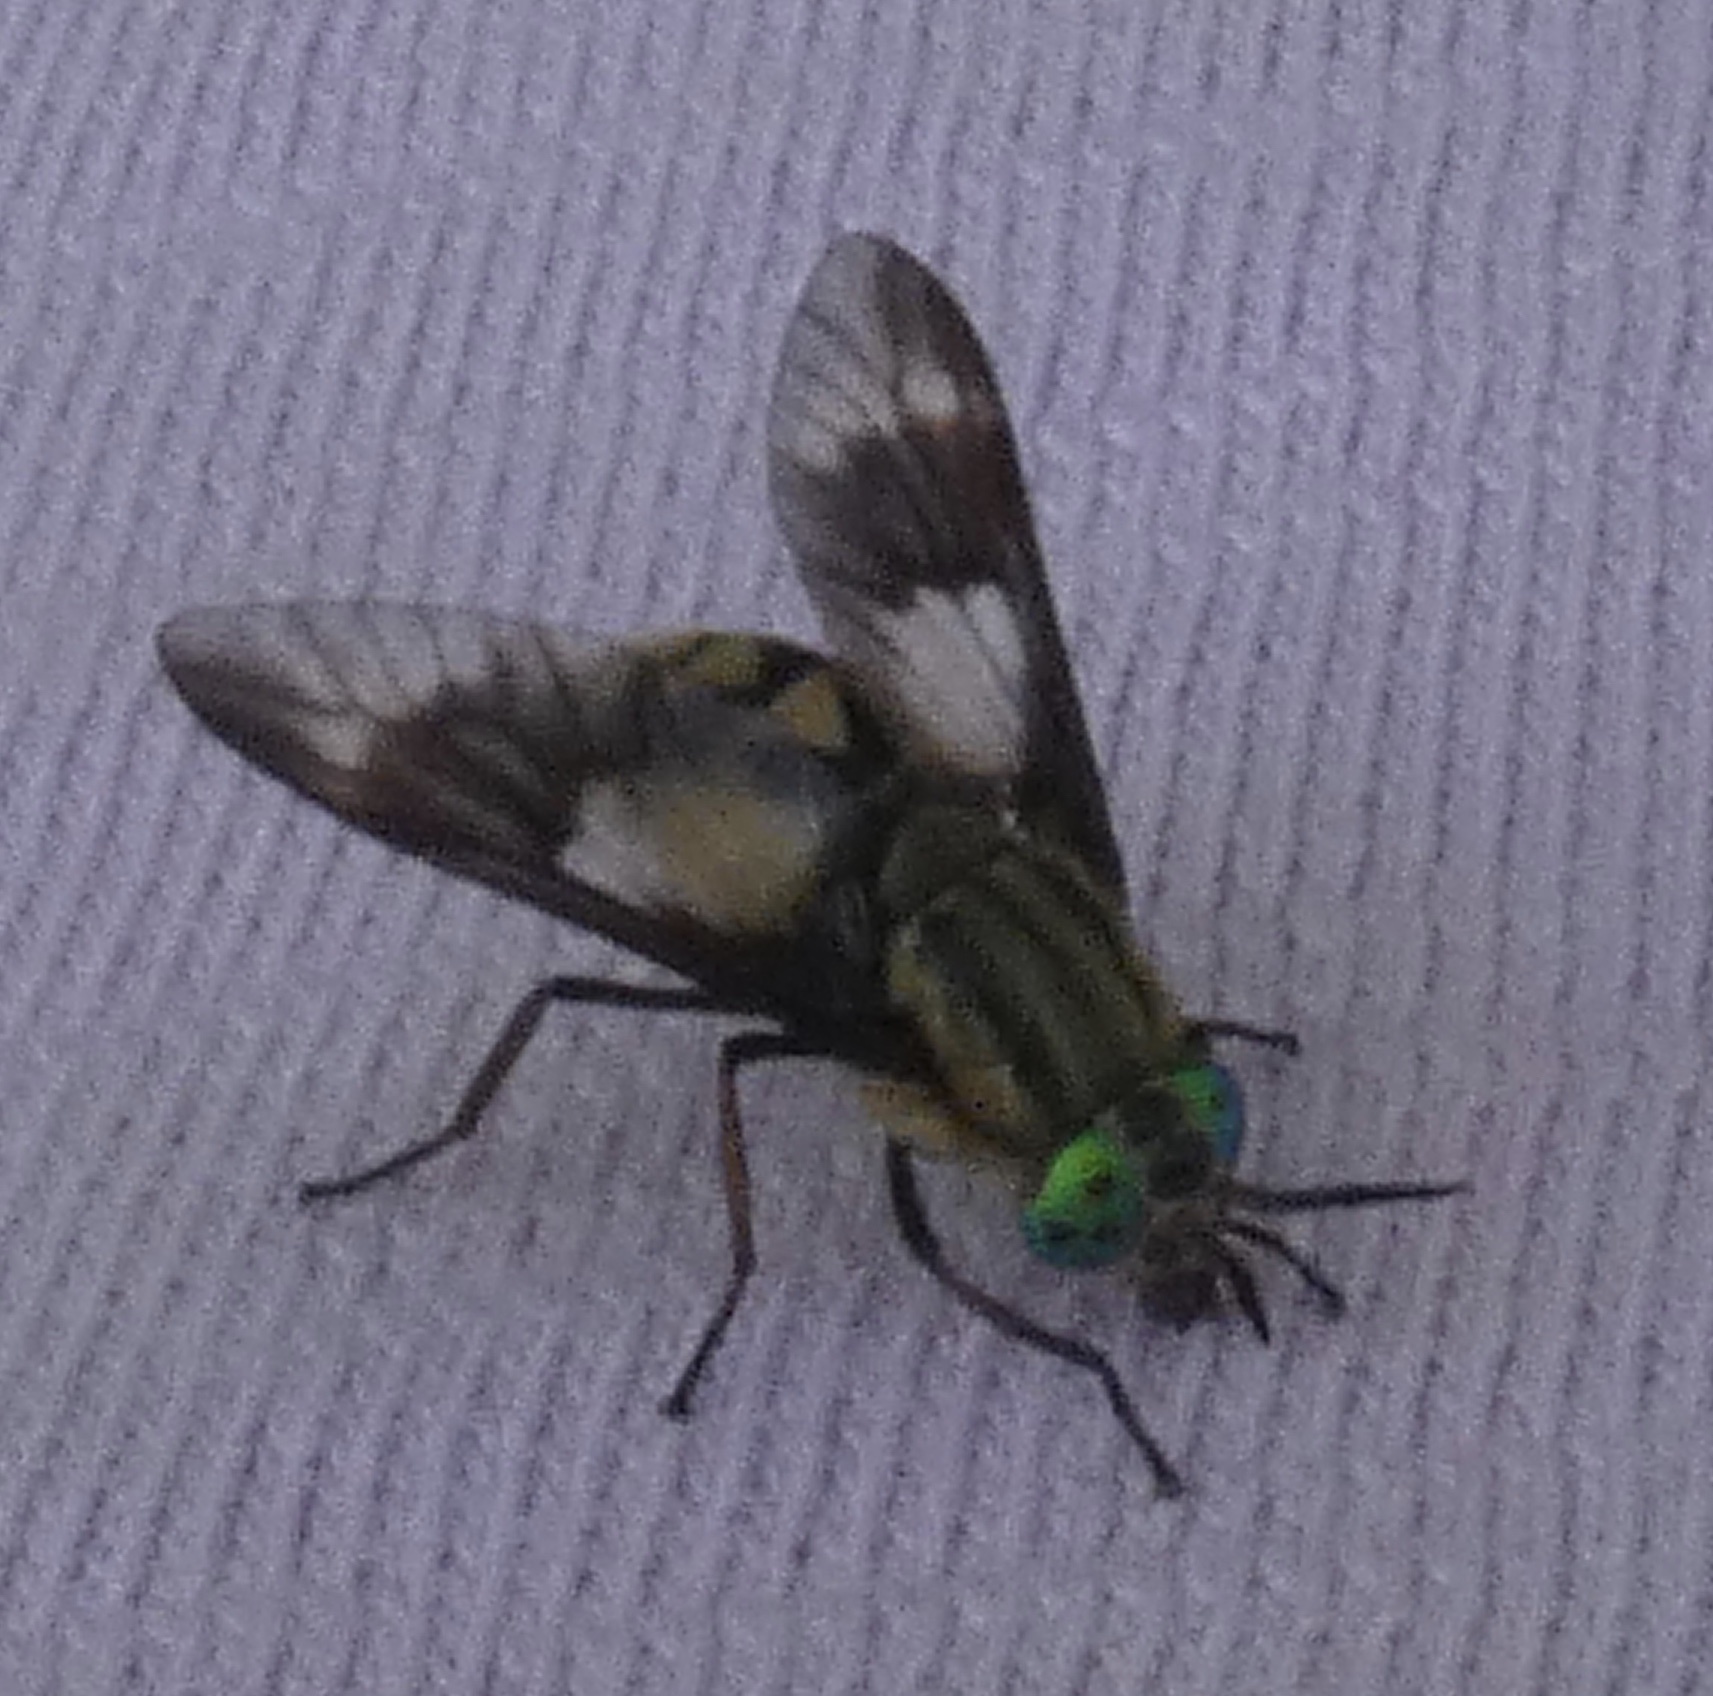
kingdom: Animalia
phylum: Arthropoda
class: Insecta
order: Diptera
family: Tabanidae
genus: Chrysops
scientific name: Chrysops relictus
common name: Twin-lobed deerfly
